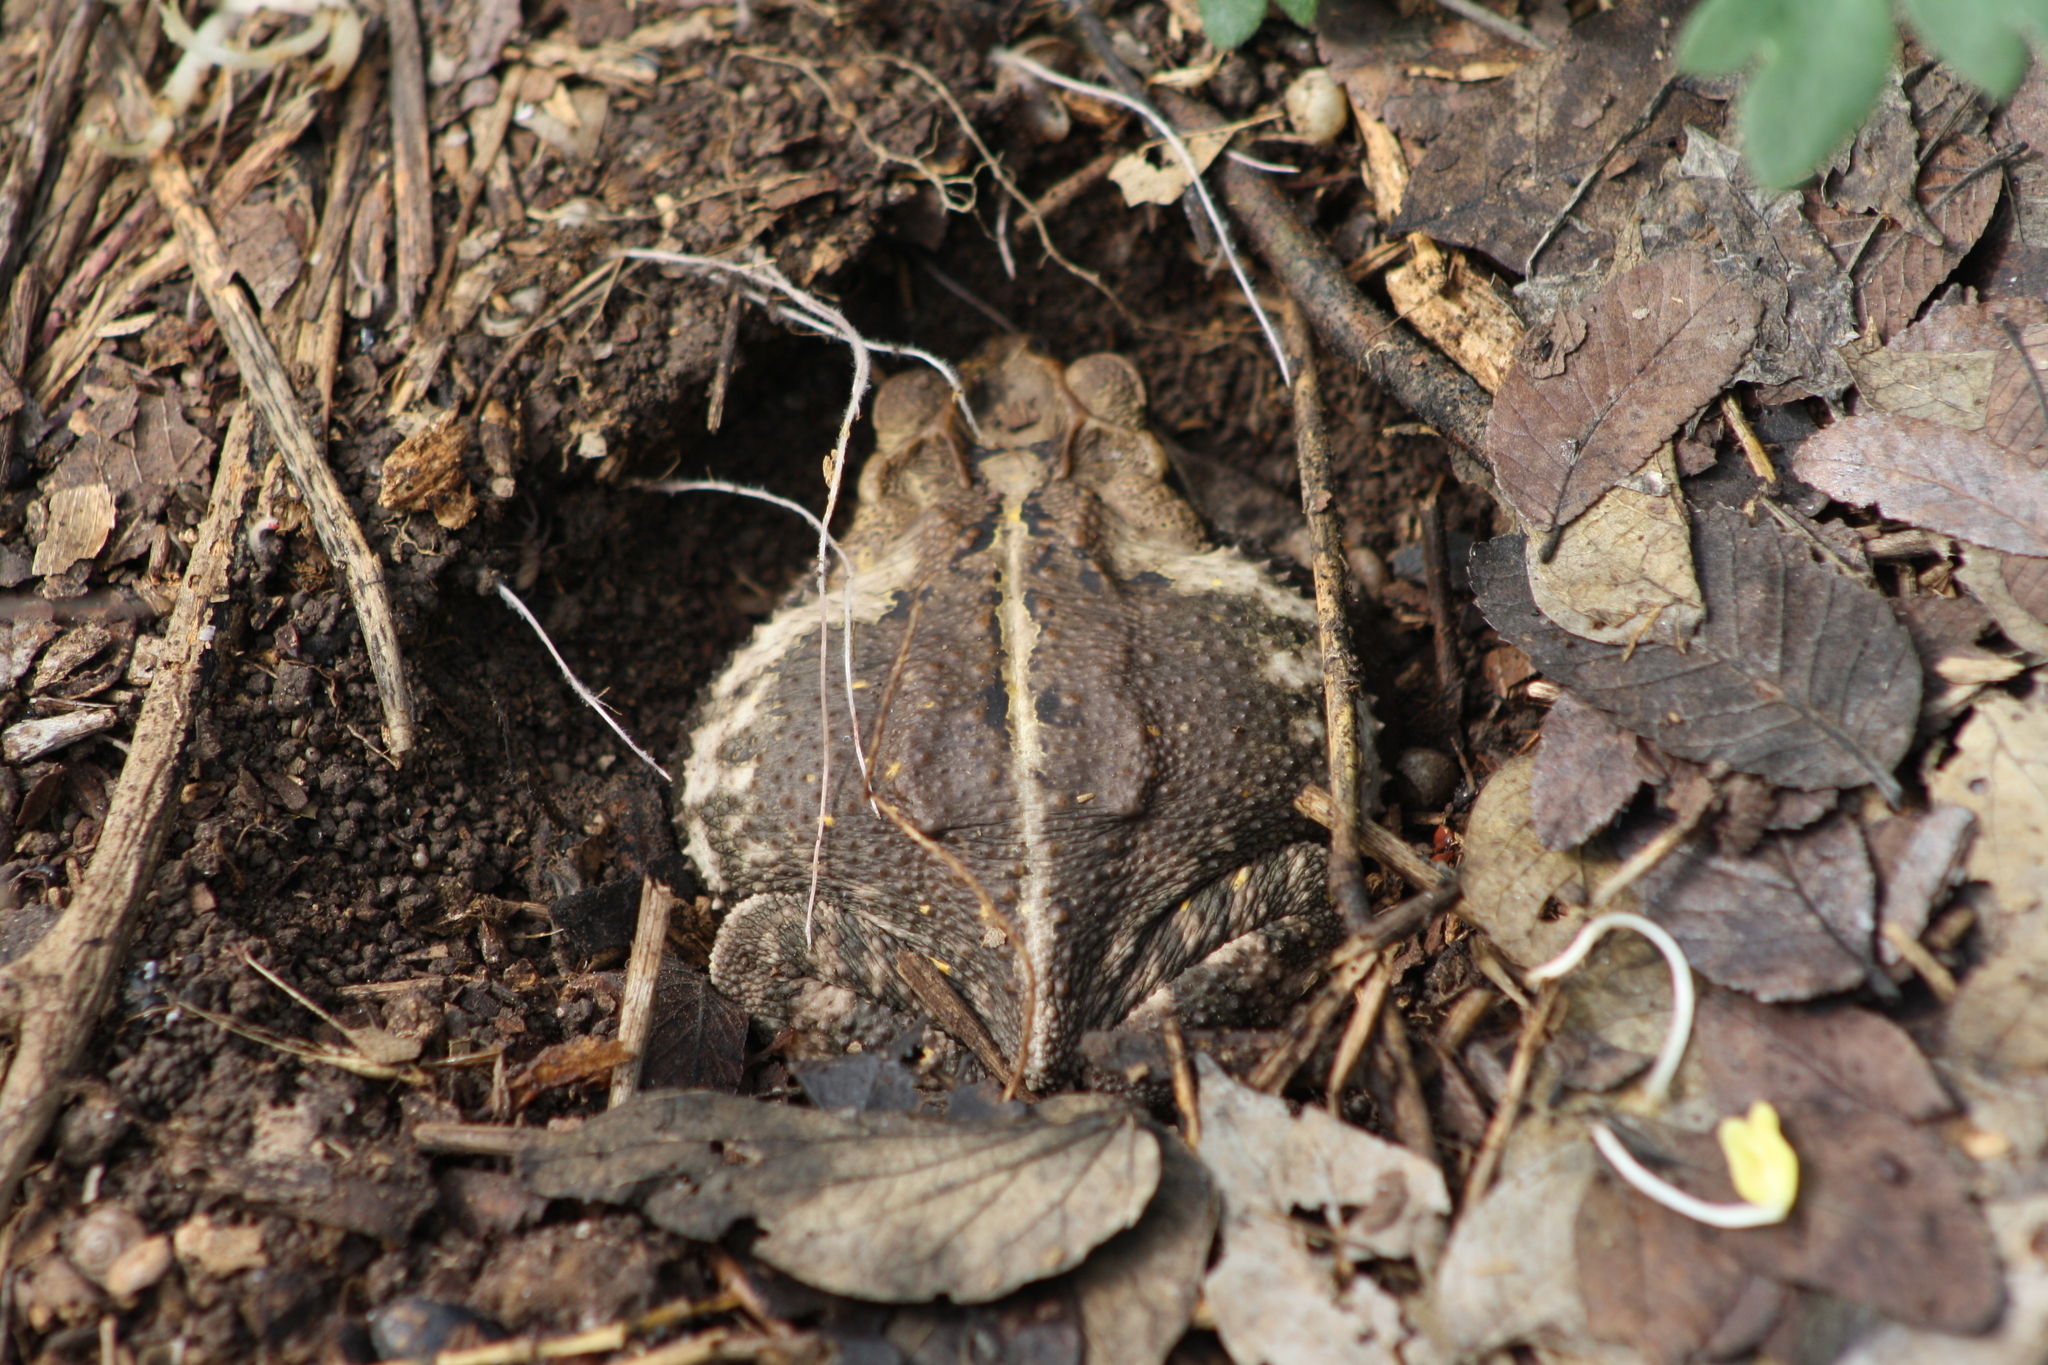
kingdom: Animalia
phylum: Chordata
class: Amphibia
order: Anura
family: Bufonidae
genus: Incilius
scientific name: Incilius nebulifer
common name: Gulf coast toad
